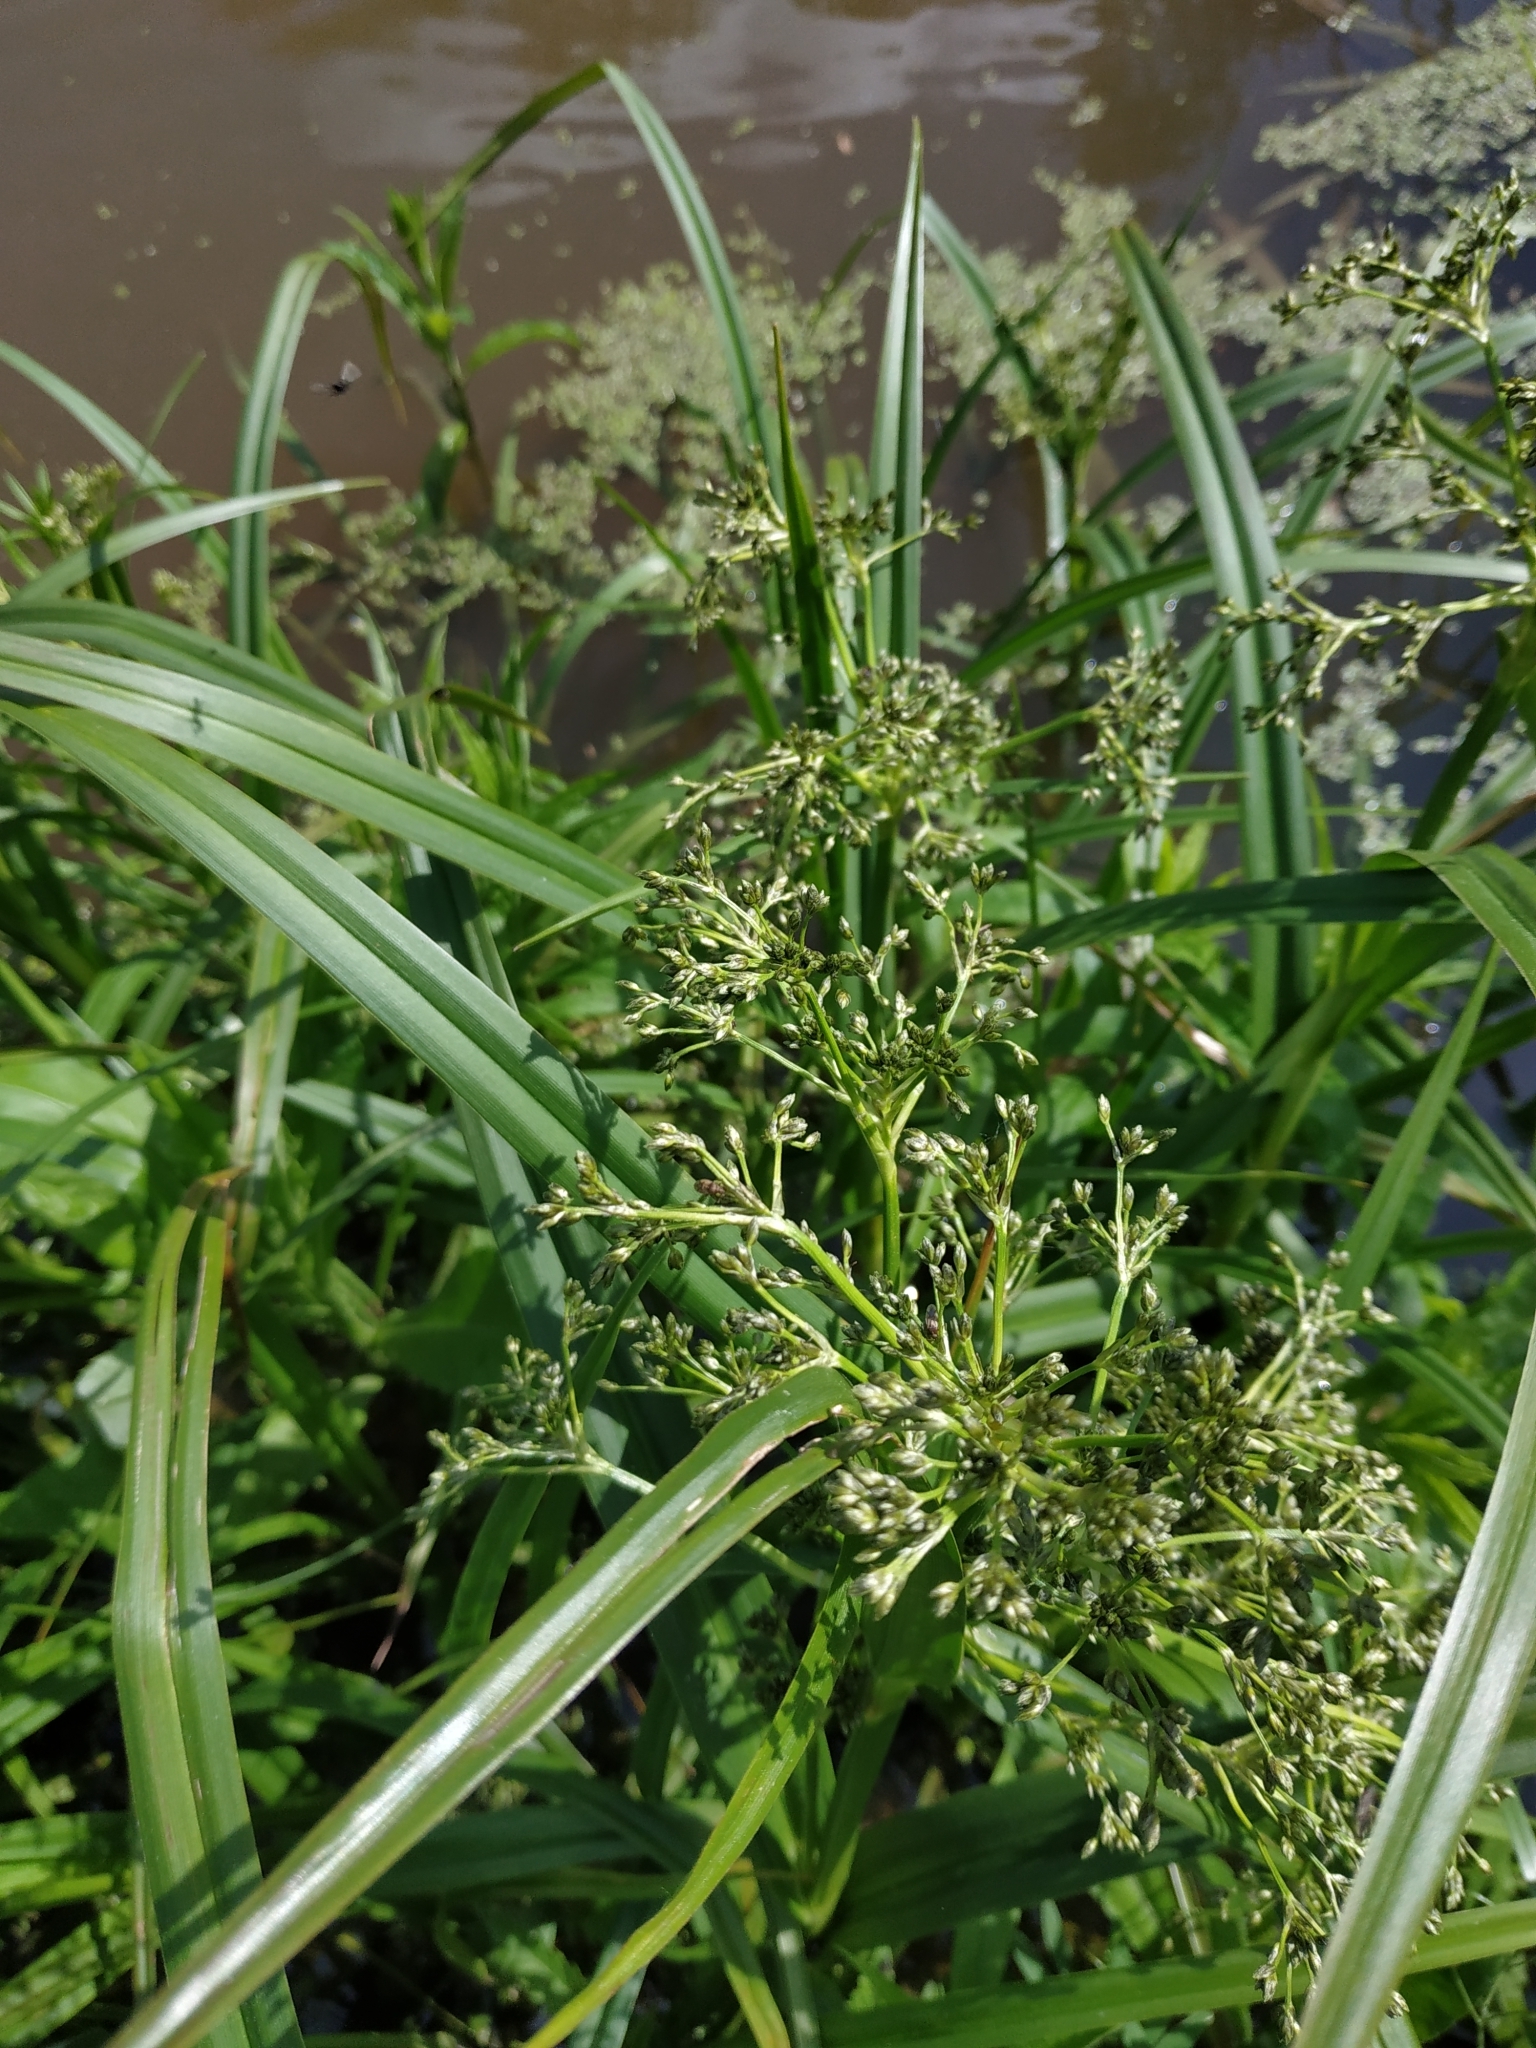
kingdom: Plantae
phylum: Tracheophyta
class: Liliopsida
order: Poales
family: Cyperaceae
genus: Scirpus
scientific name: Scirpus sylvaticus
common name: Wood club-rush
